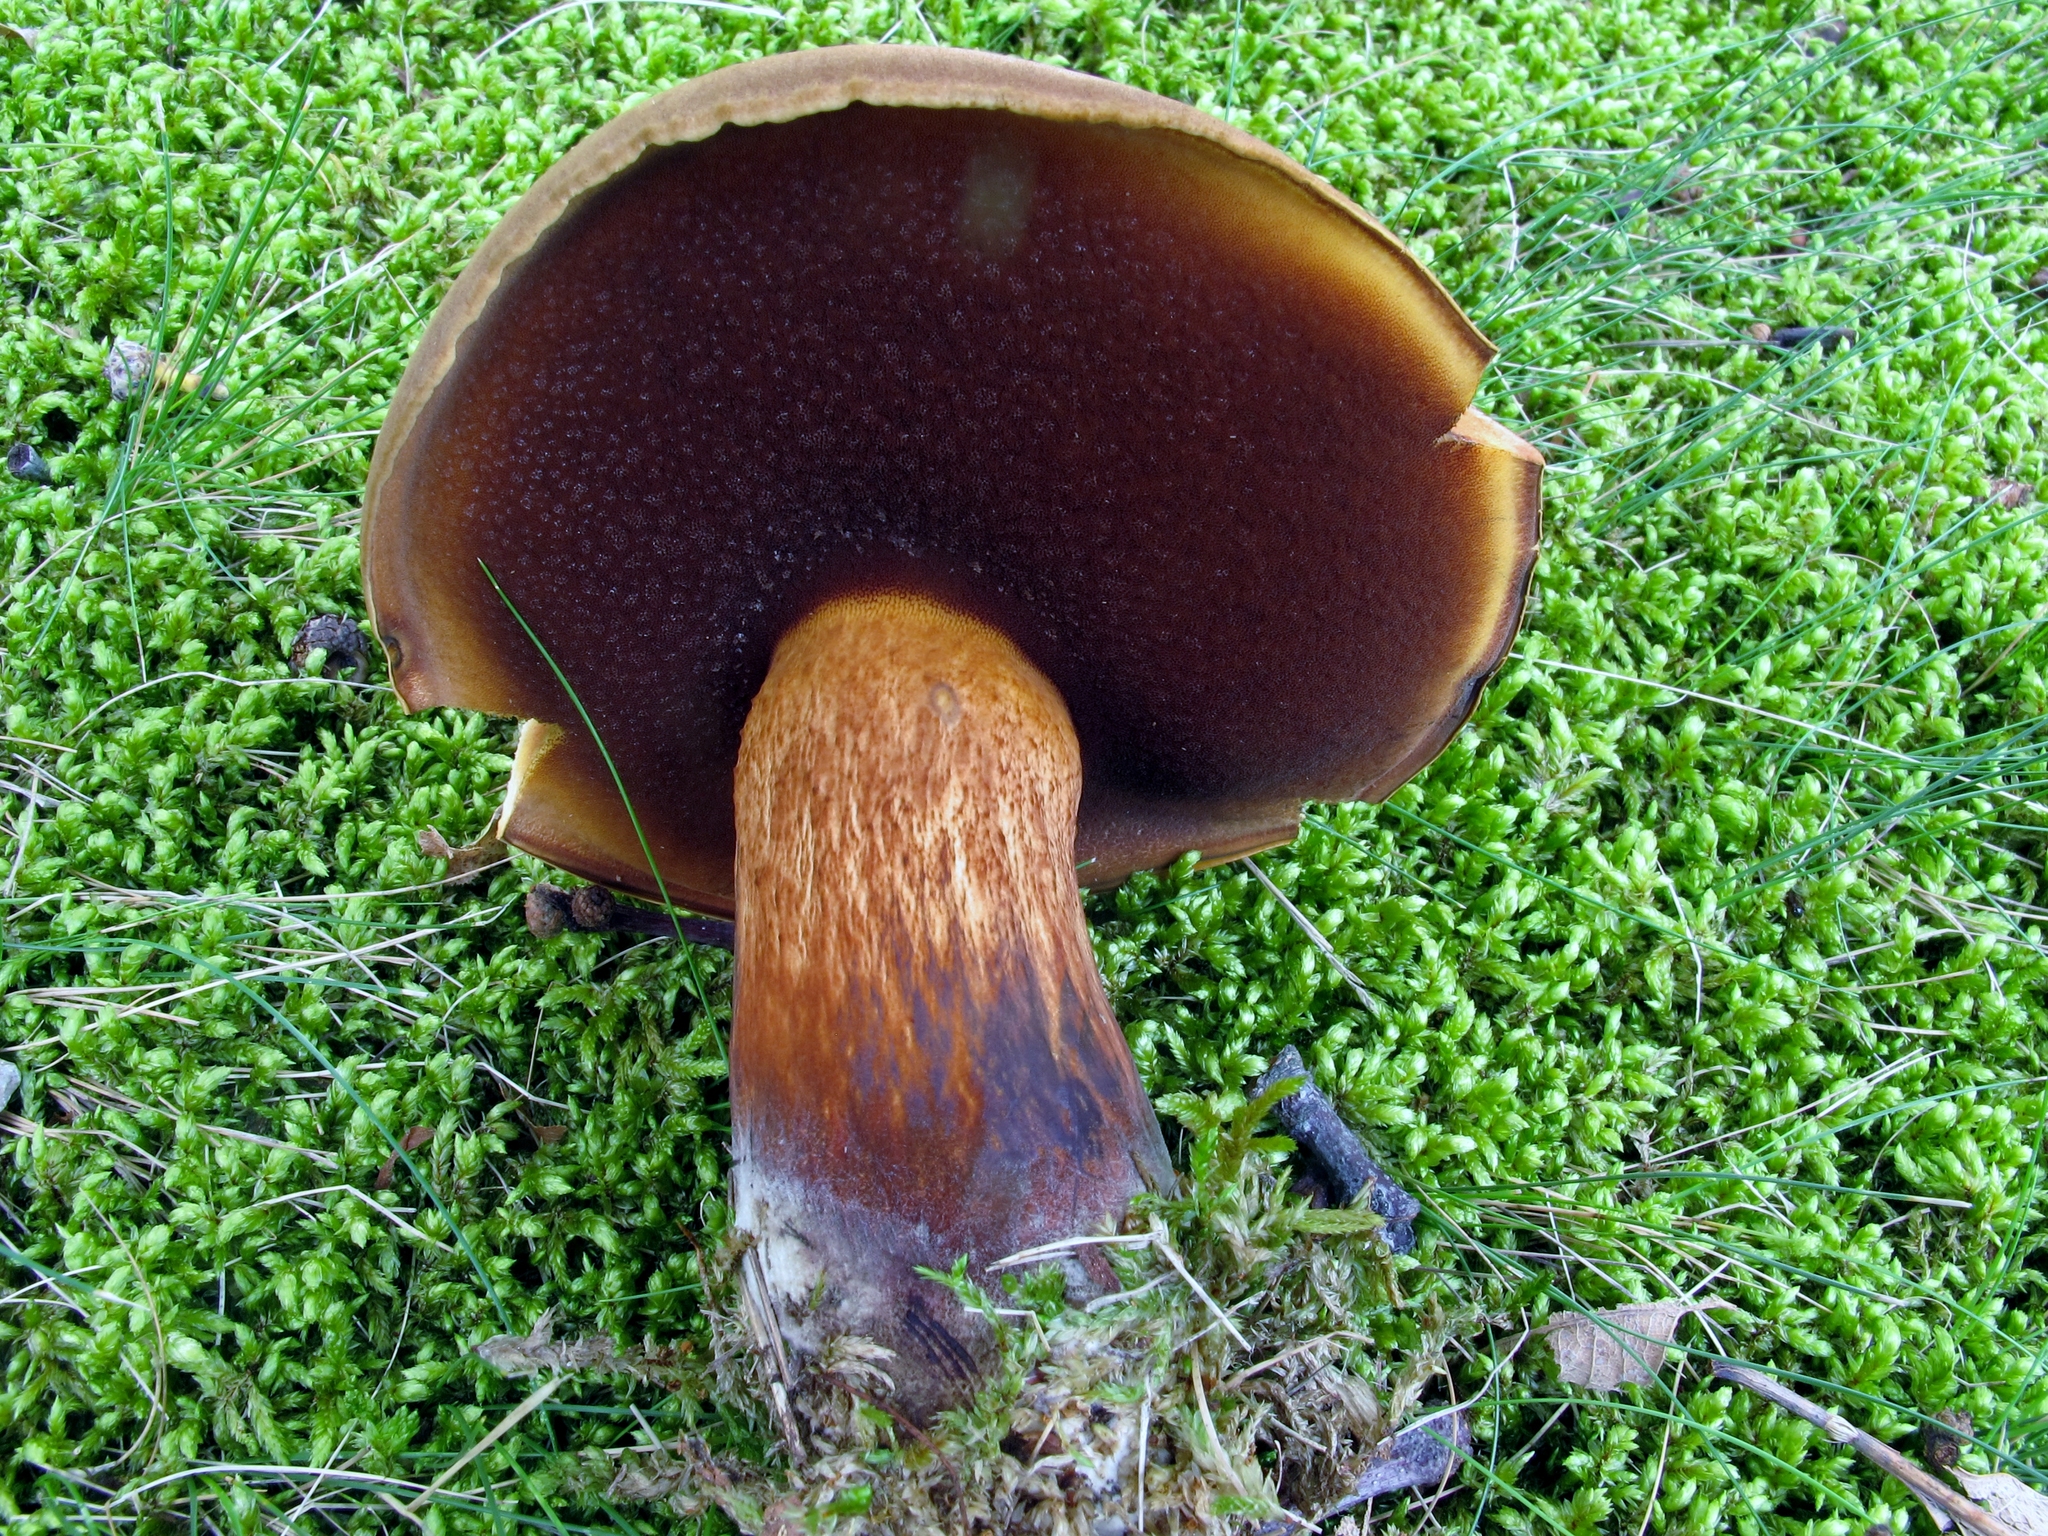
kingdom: Fungi
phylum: Basidiomycota
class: Agaricomycetes
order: Boletales
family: Boletaceae
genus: Boletus
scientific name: Boletus vermiculosus
